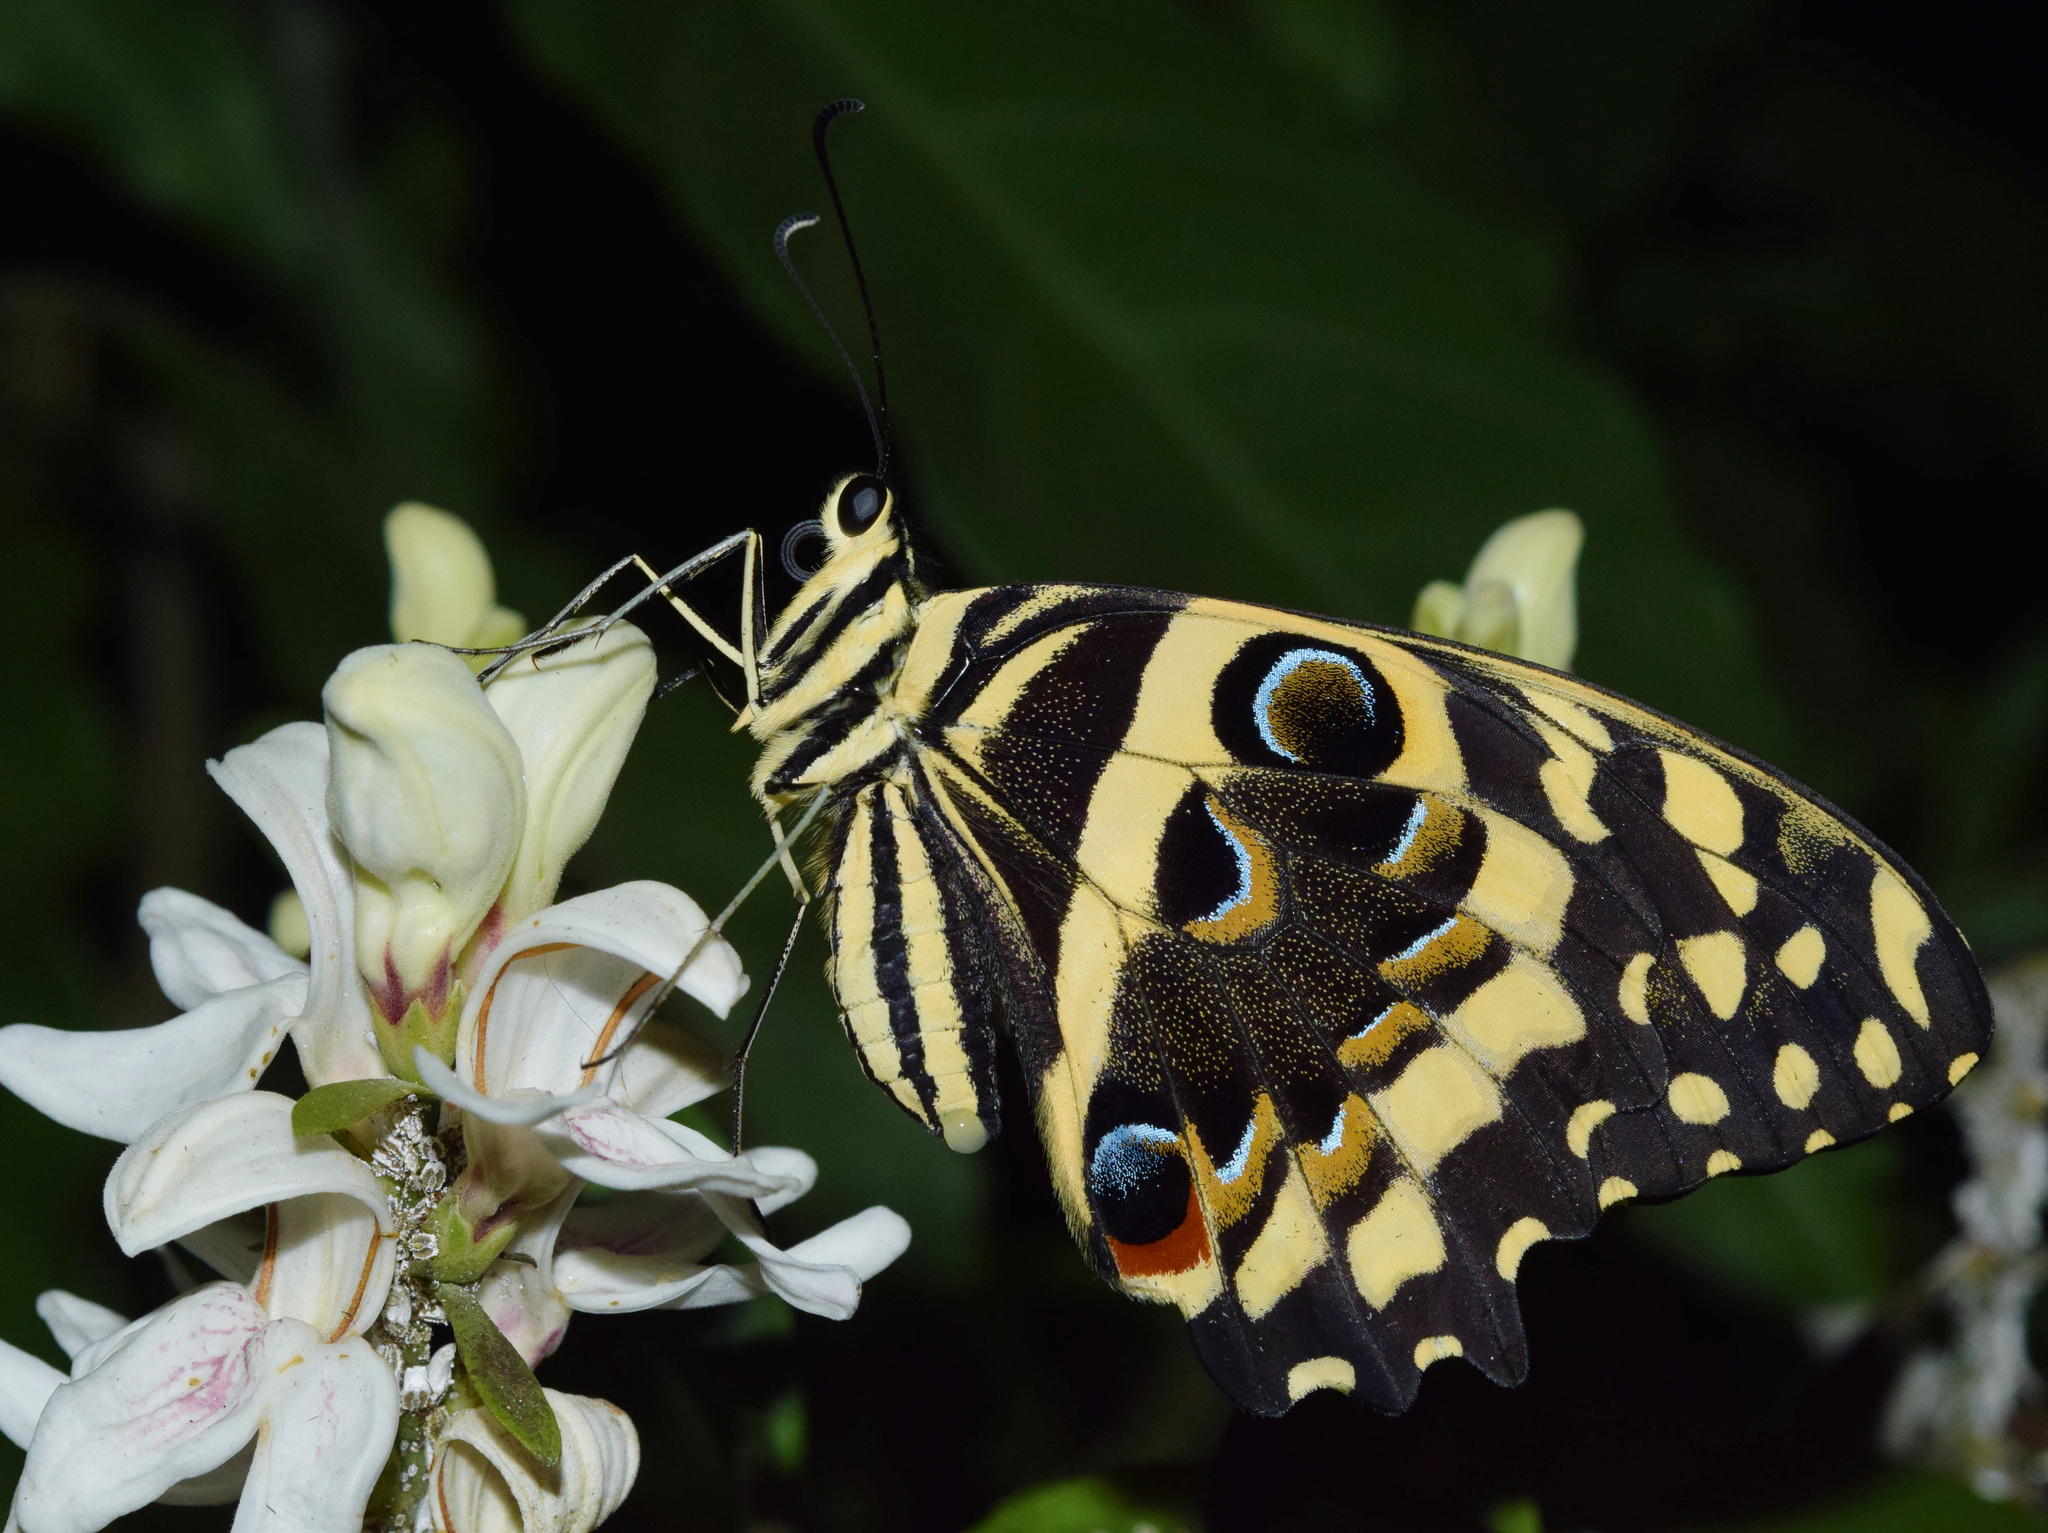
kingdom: Animalia
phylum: Arthropoda
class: Insecta
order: Lepidoptera
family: Papilionidae
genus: Papilio
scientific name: Papilio demodocus
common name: Christmas butterfly
